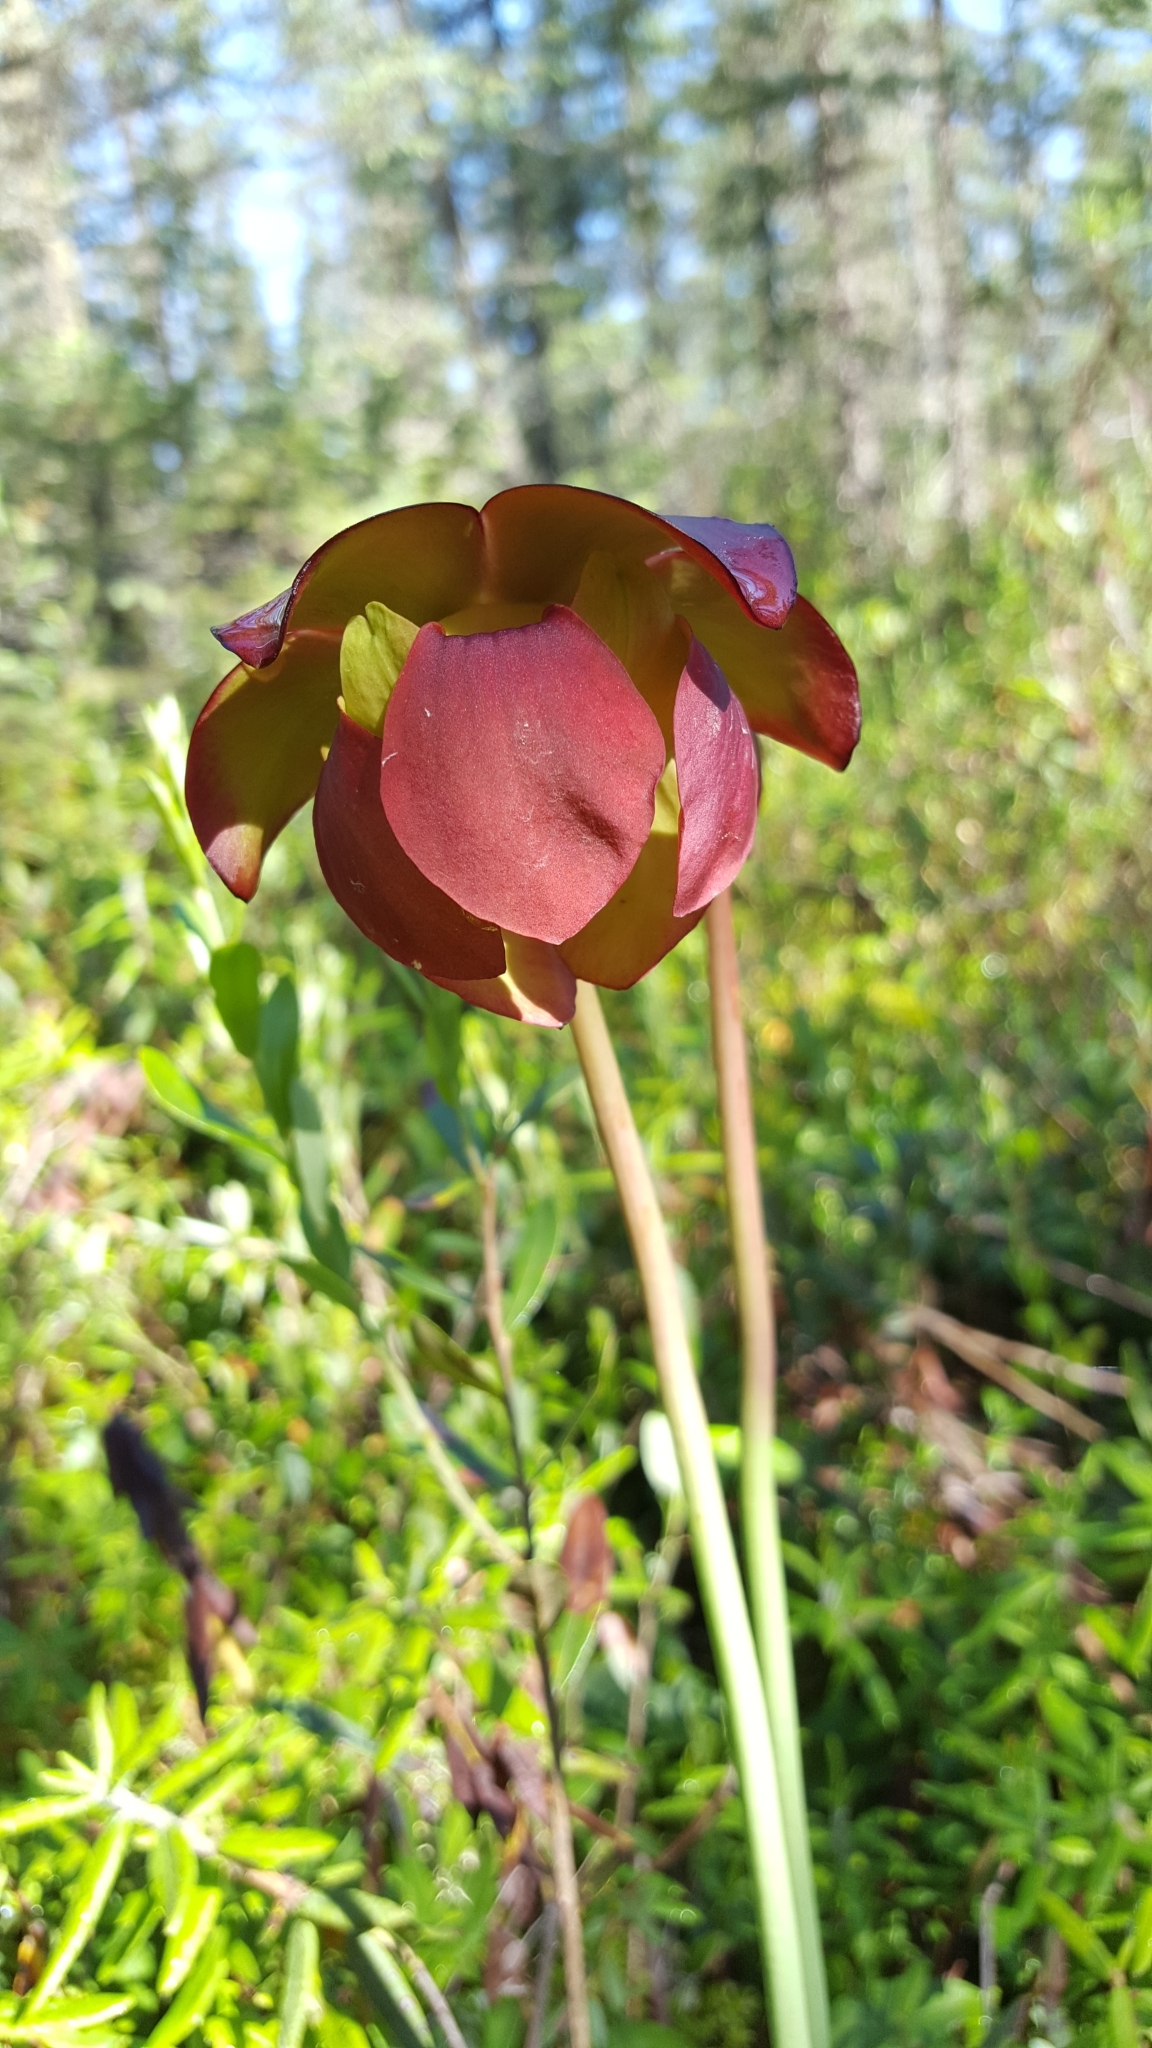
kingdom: Plantae
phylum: Tracheophyta
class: Magnoliopsida
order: Ericales
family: Sarraceniaceae
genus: Sarracenia
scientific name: Sarracenia purpurea
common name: Pitcherplant
